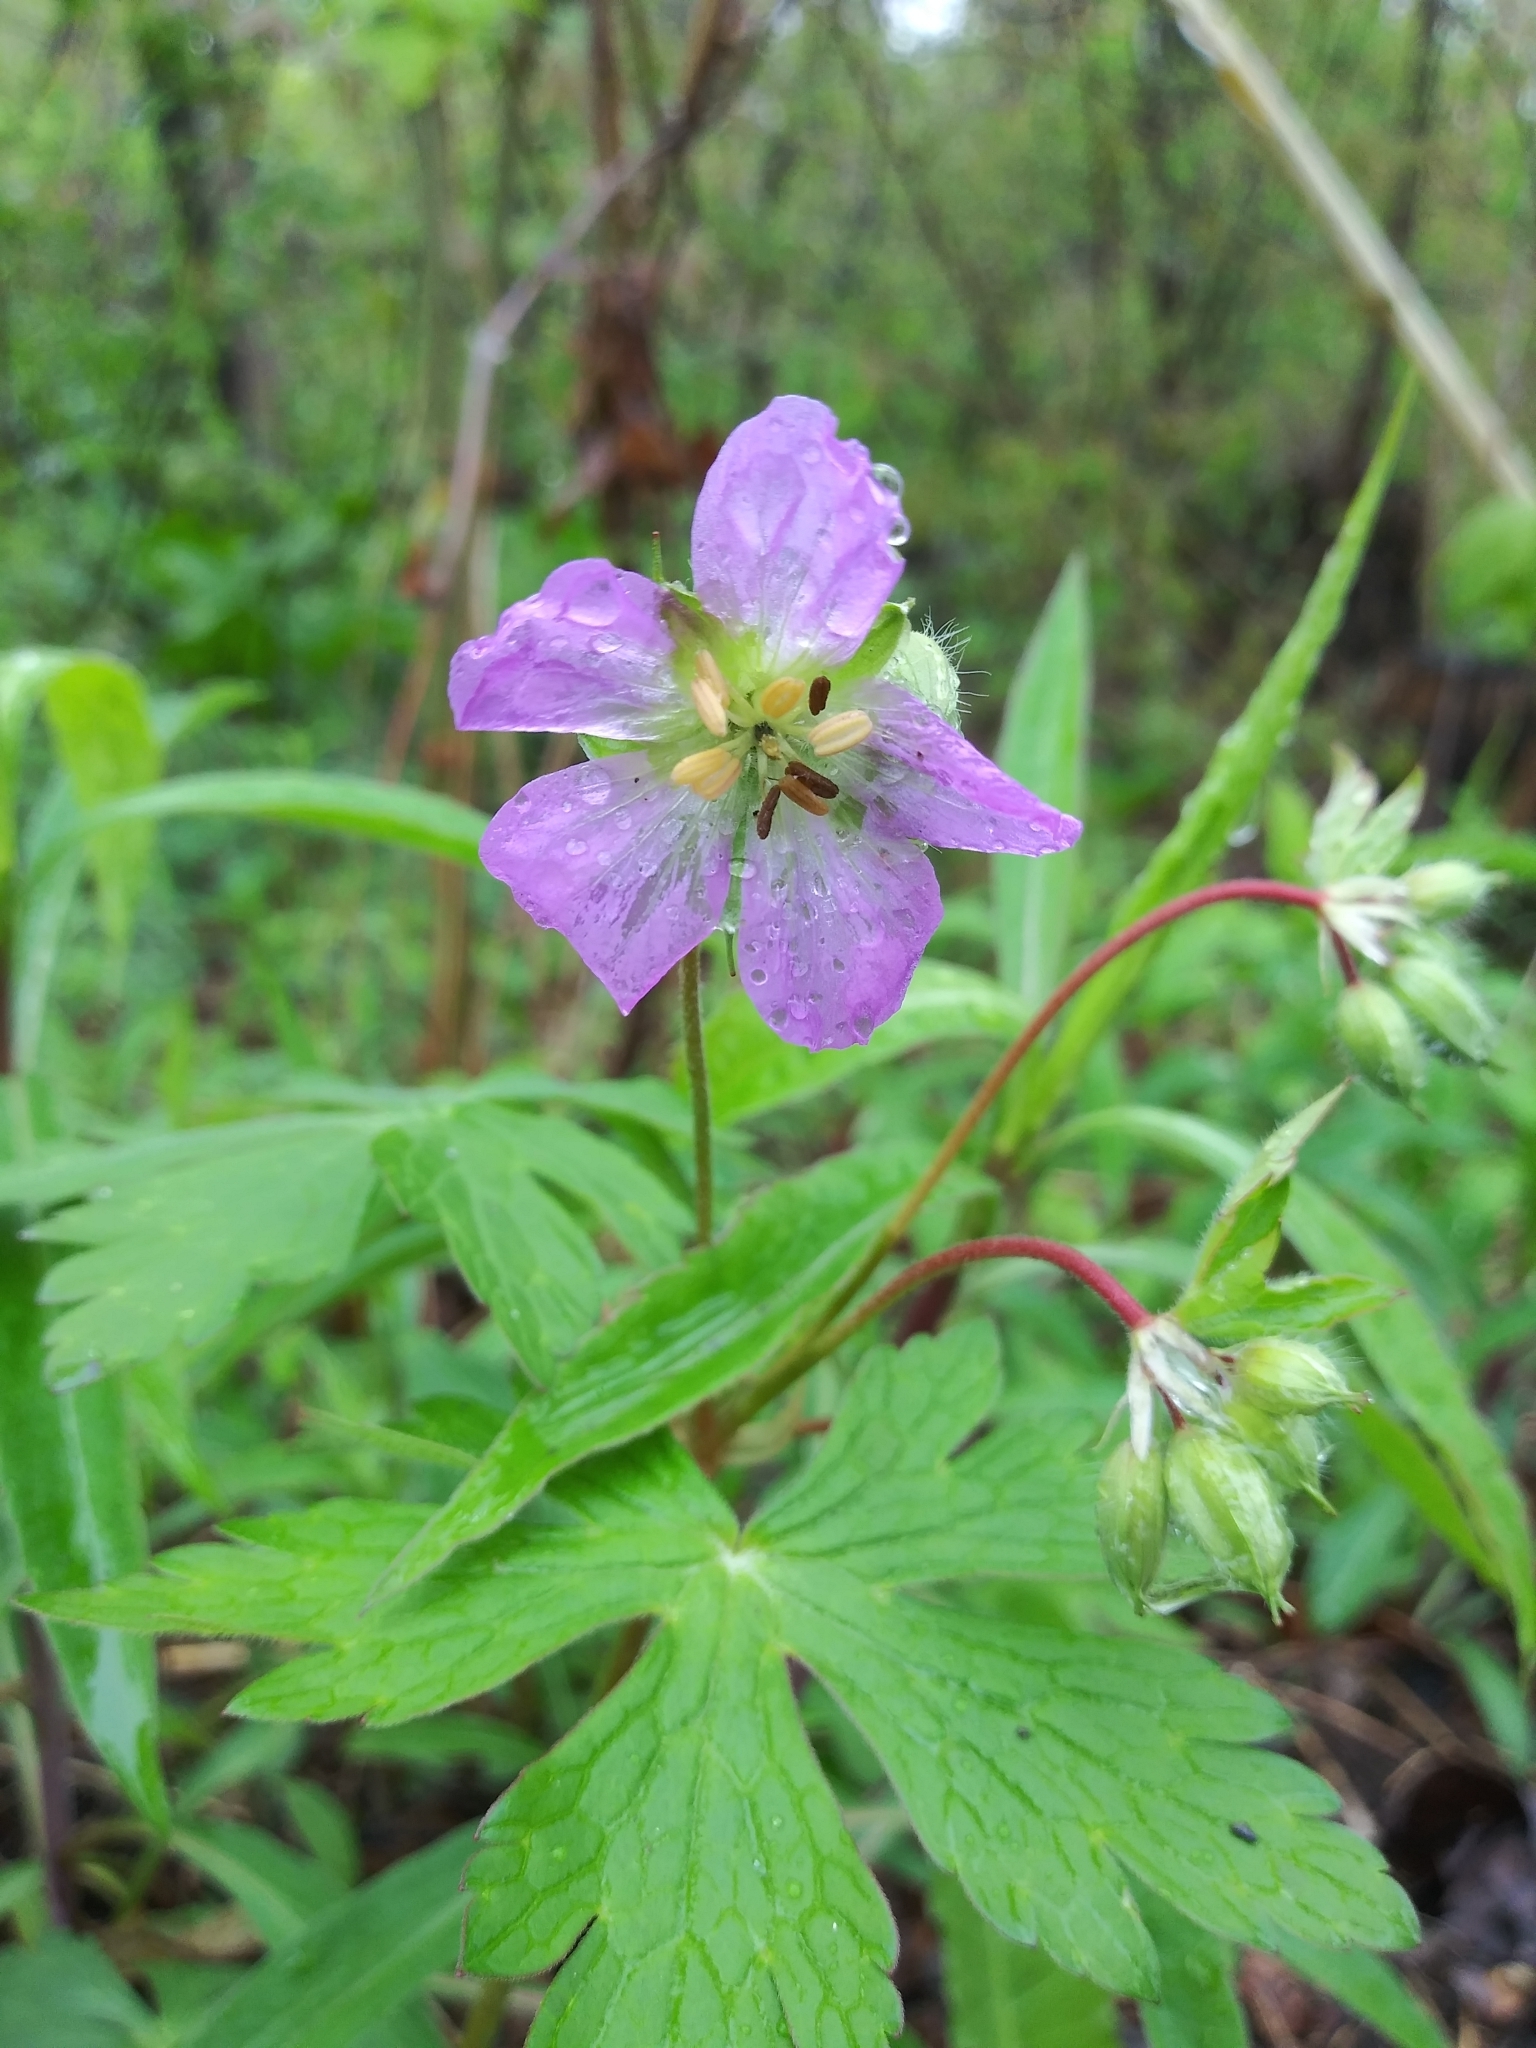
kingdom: Plantae
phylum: Tracheophyta
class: Magnoliopsida
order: Geraniales
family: Geraniaceae
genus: Geranium
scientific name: Geranium maculatum
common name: Spotted geranium
